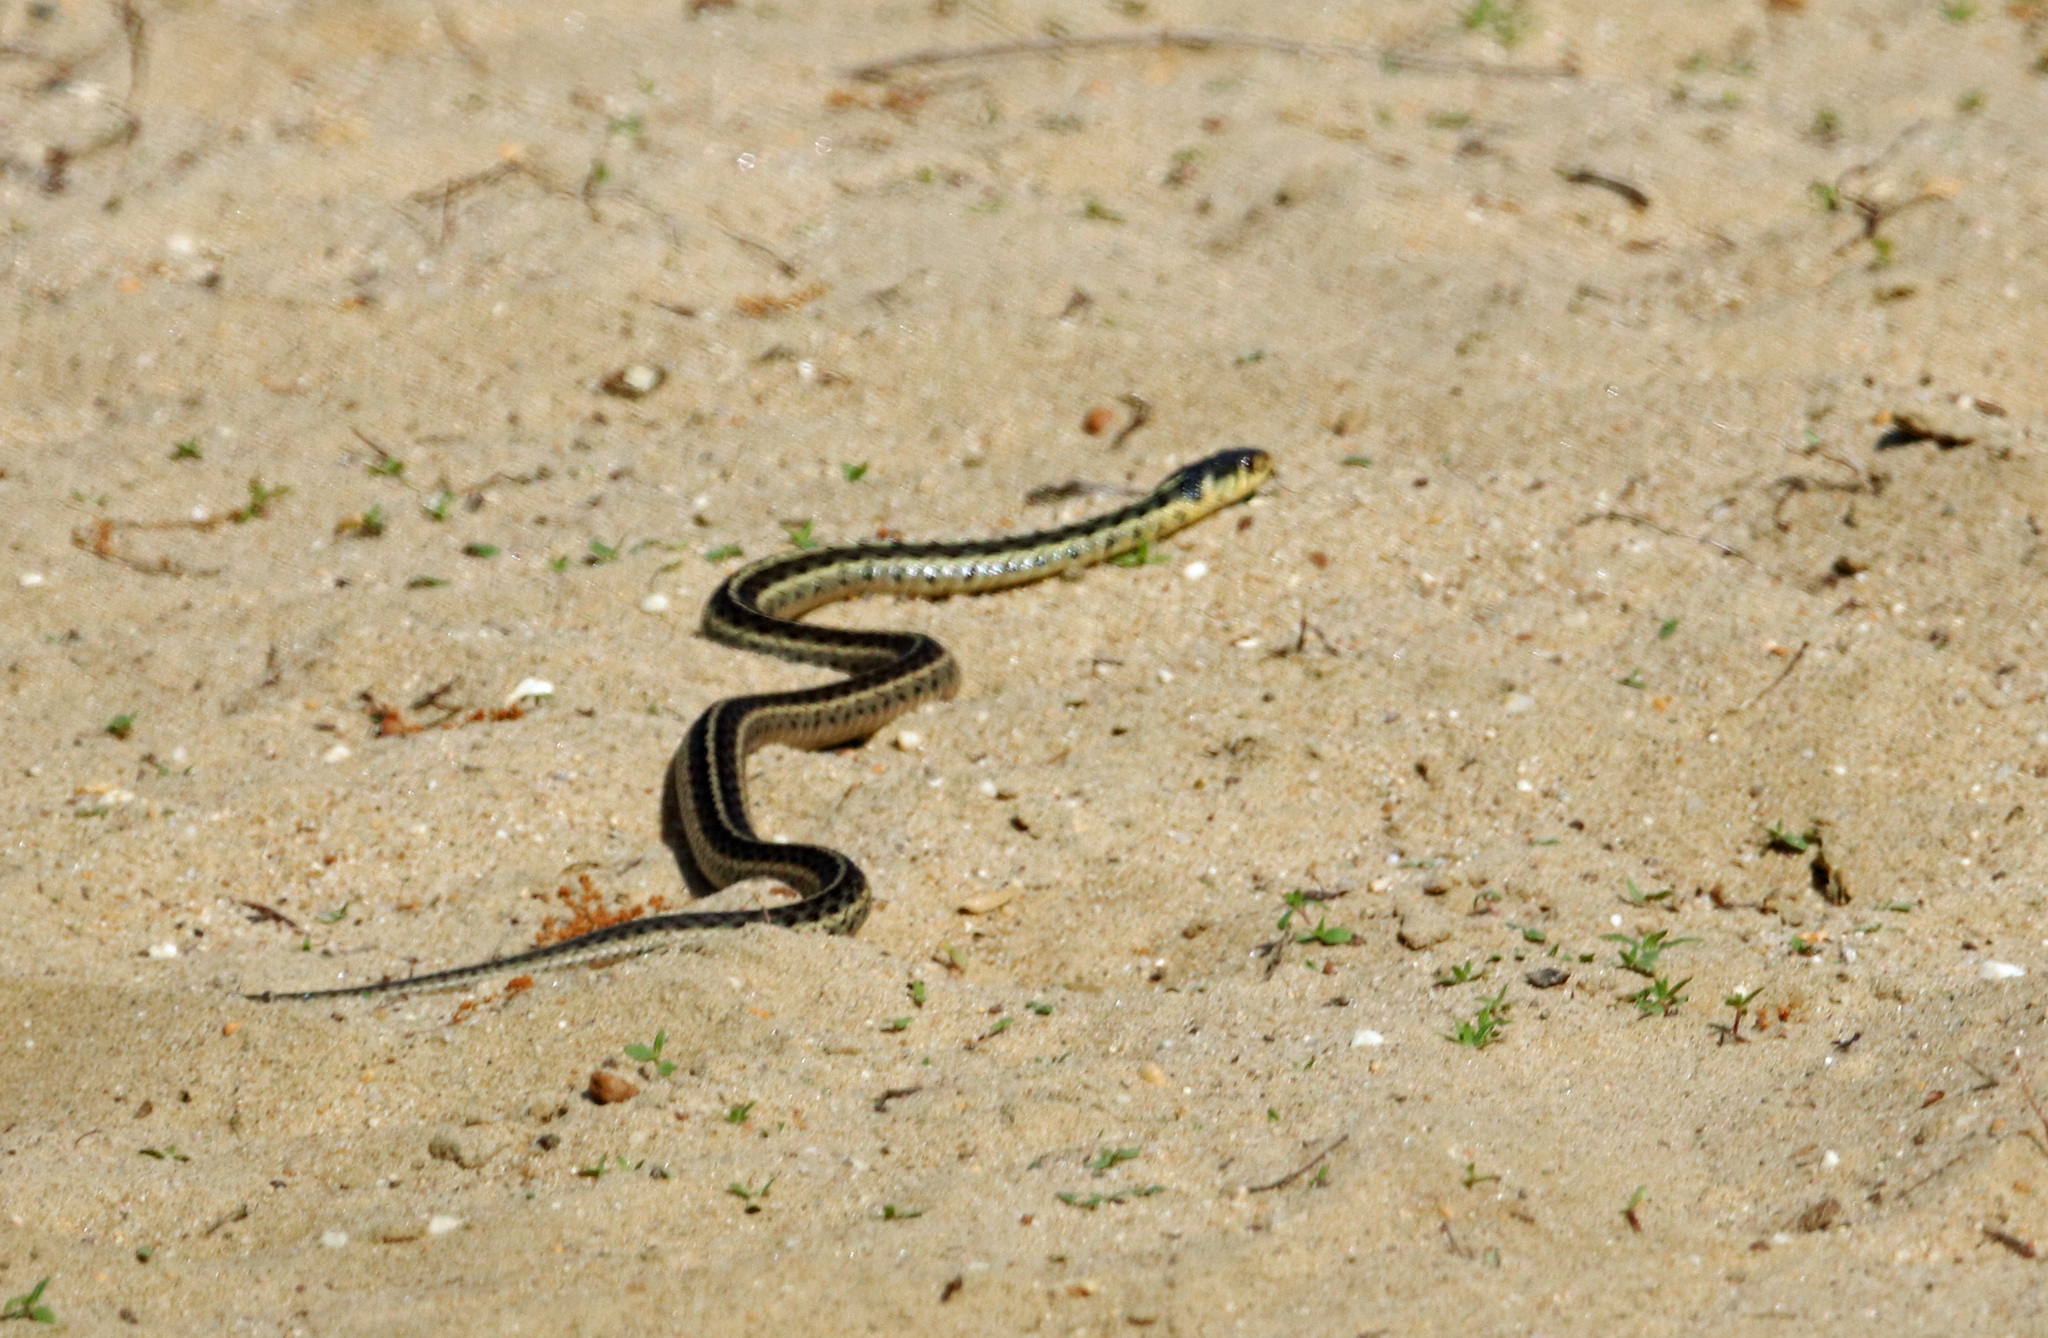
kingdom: Animalia
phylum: Chordata
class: Squamata
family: Colubridae
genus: Thamnophis
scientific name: Thamnophis sirtalis
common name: Common garter snake
